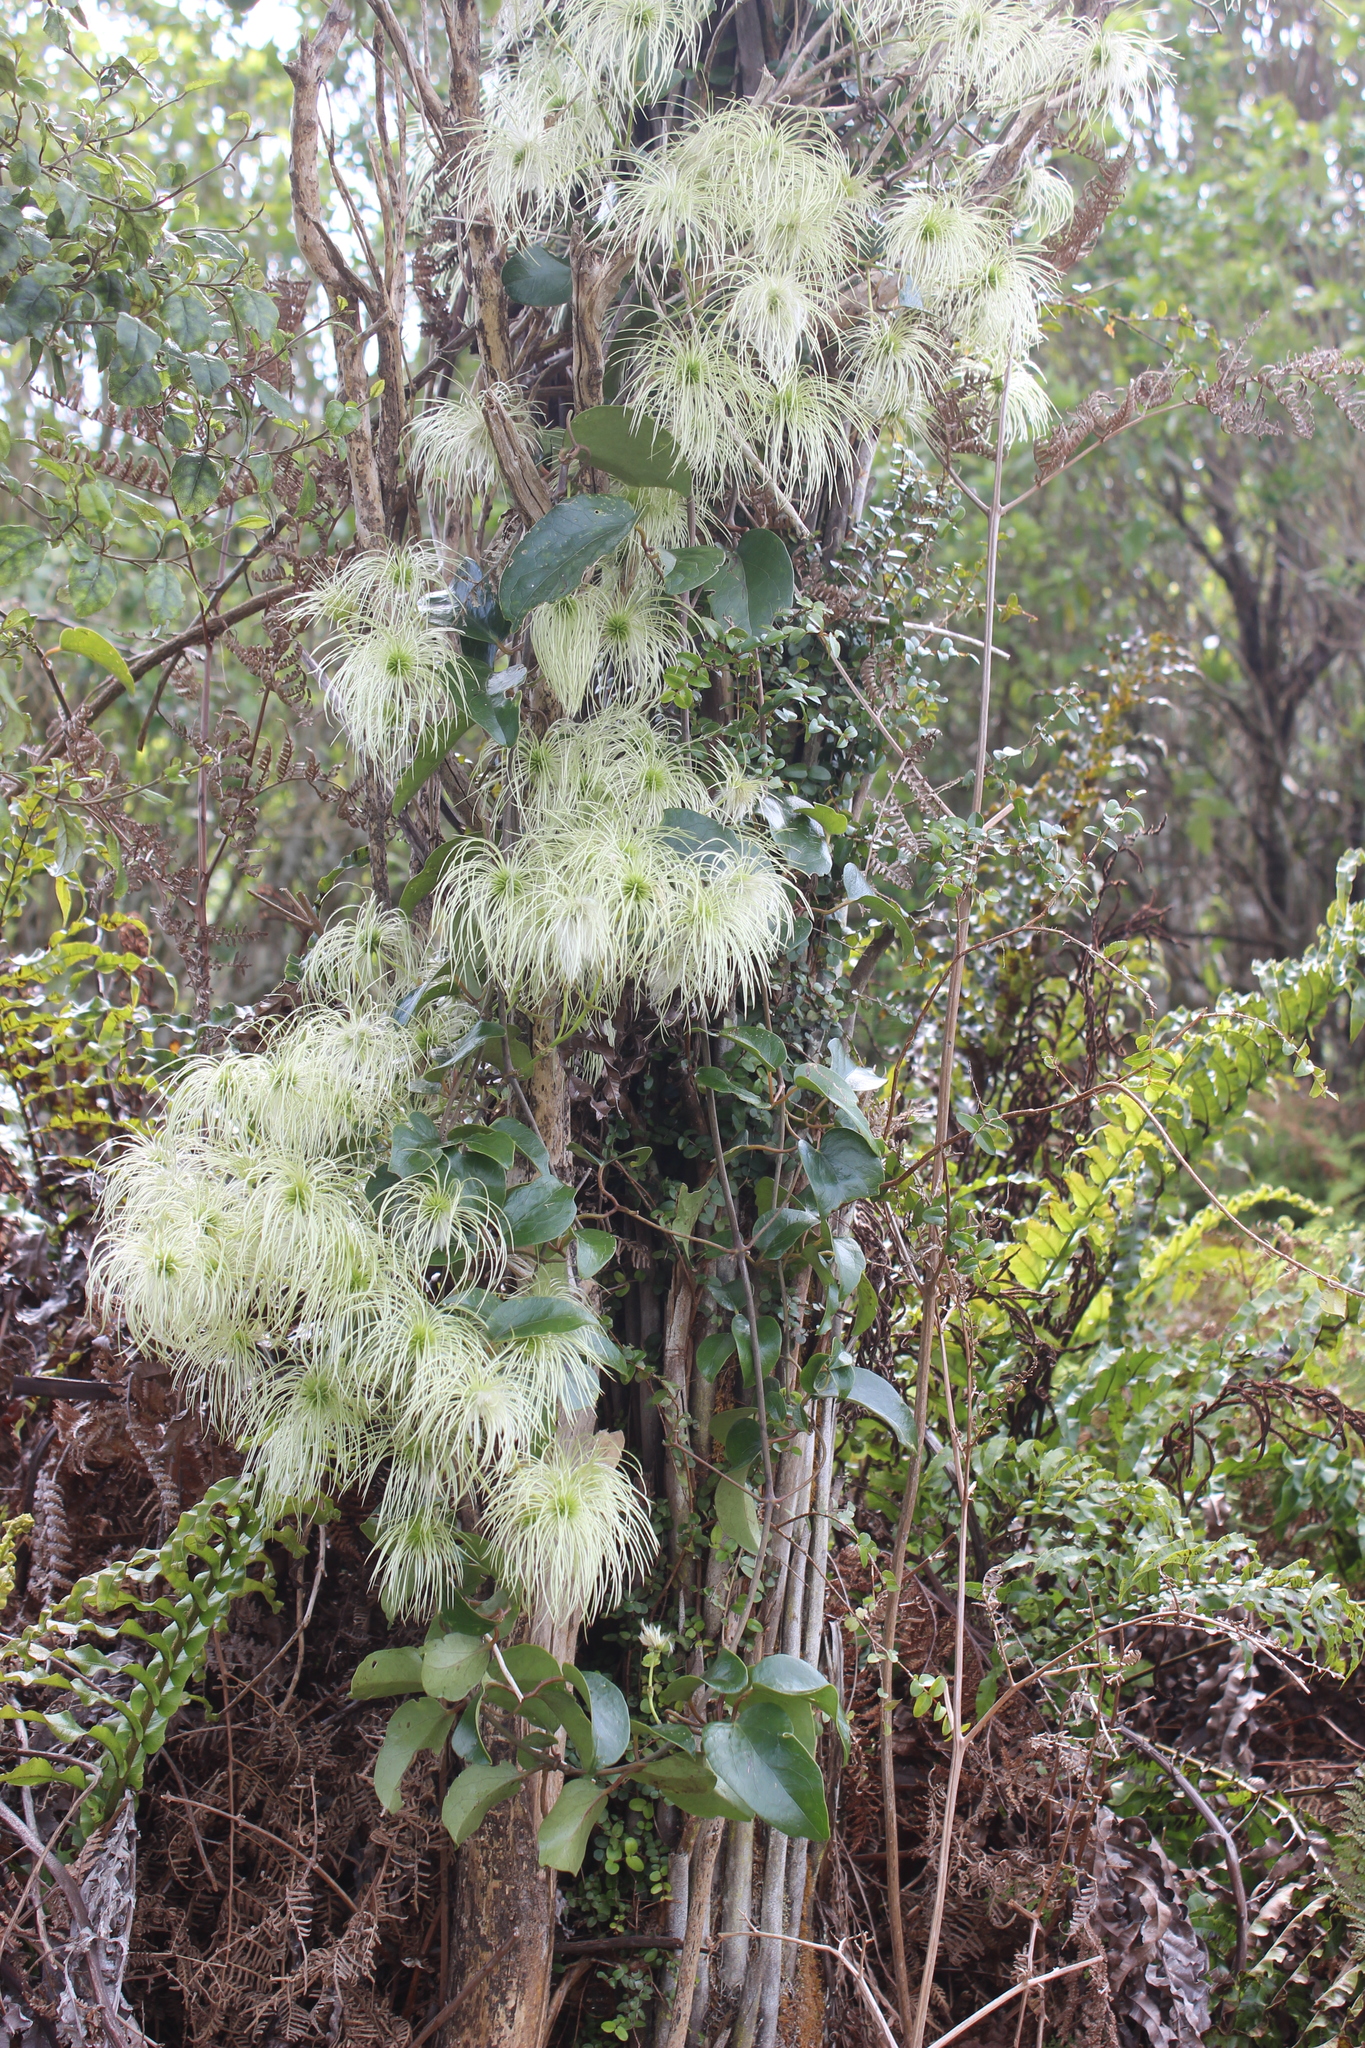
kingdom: Plantae
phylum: Tracheophyta
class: Magnoliopsida
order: Ranunculales
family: Ranunculaceae
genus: Clematis
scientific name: Clematis paniculata
